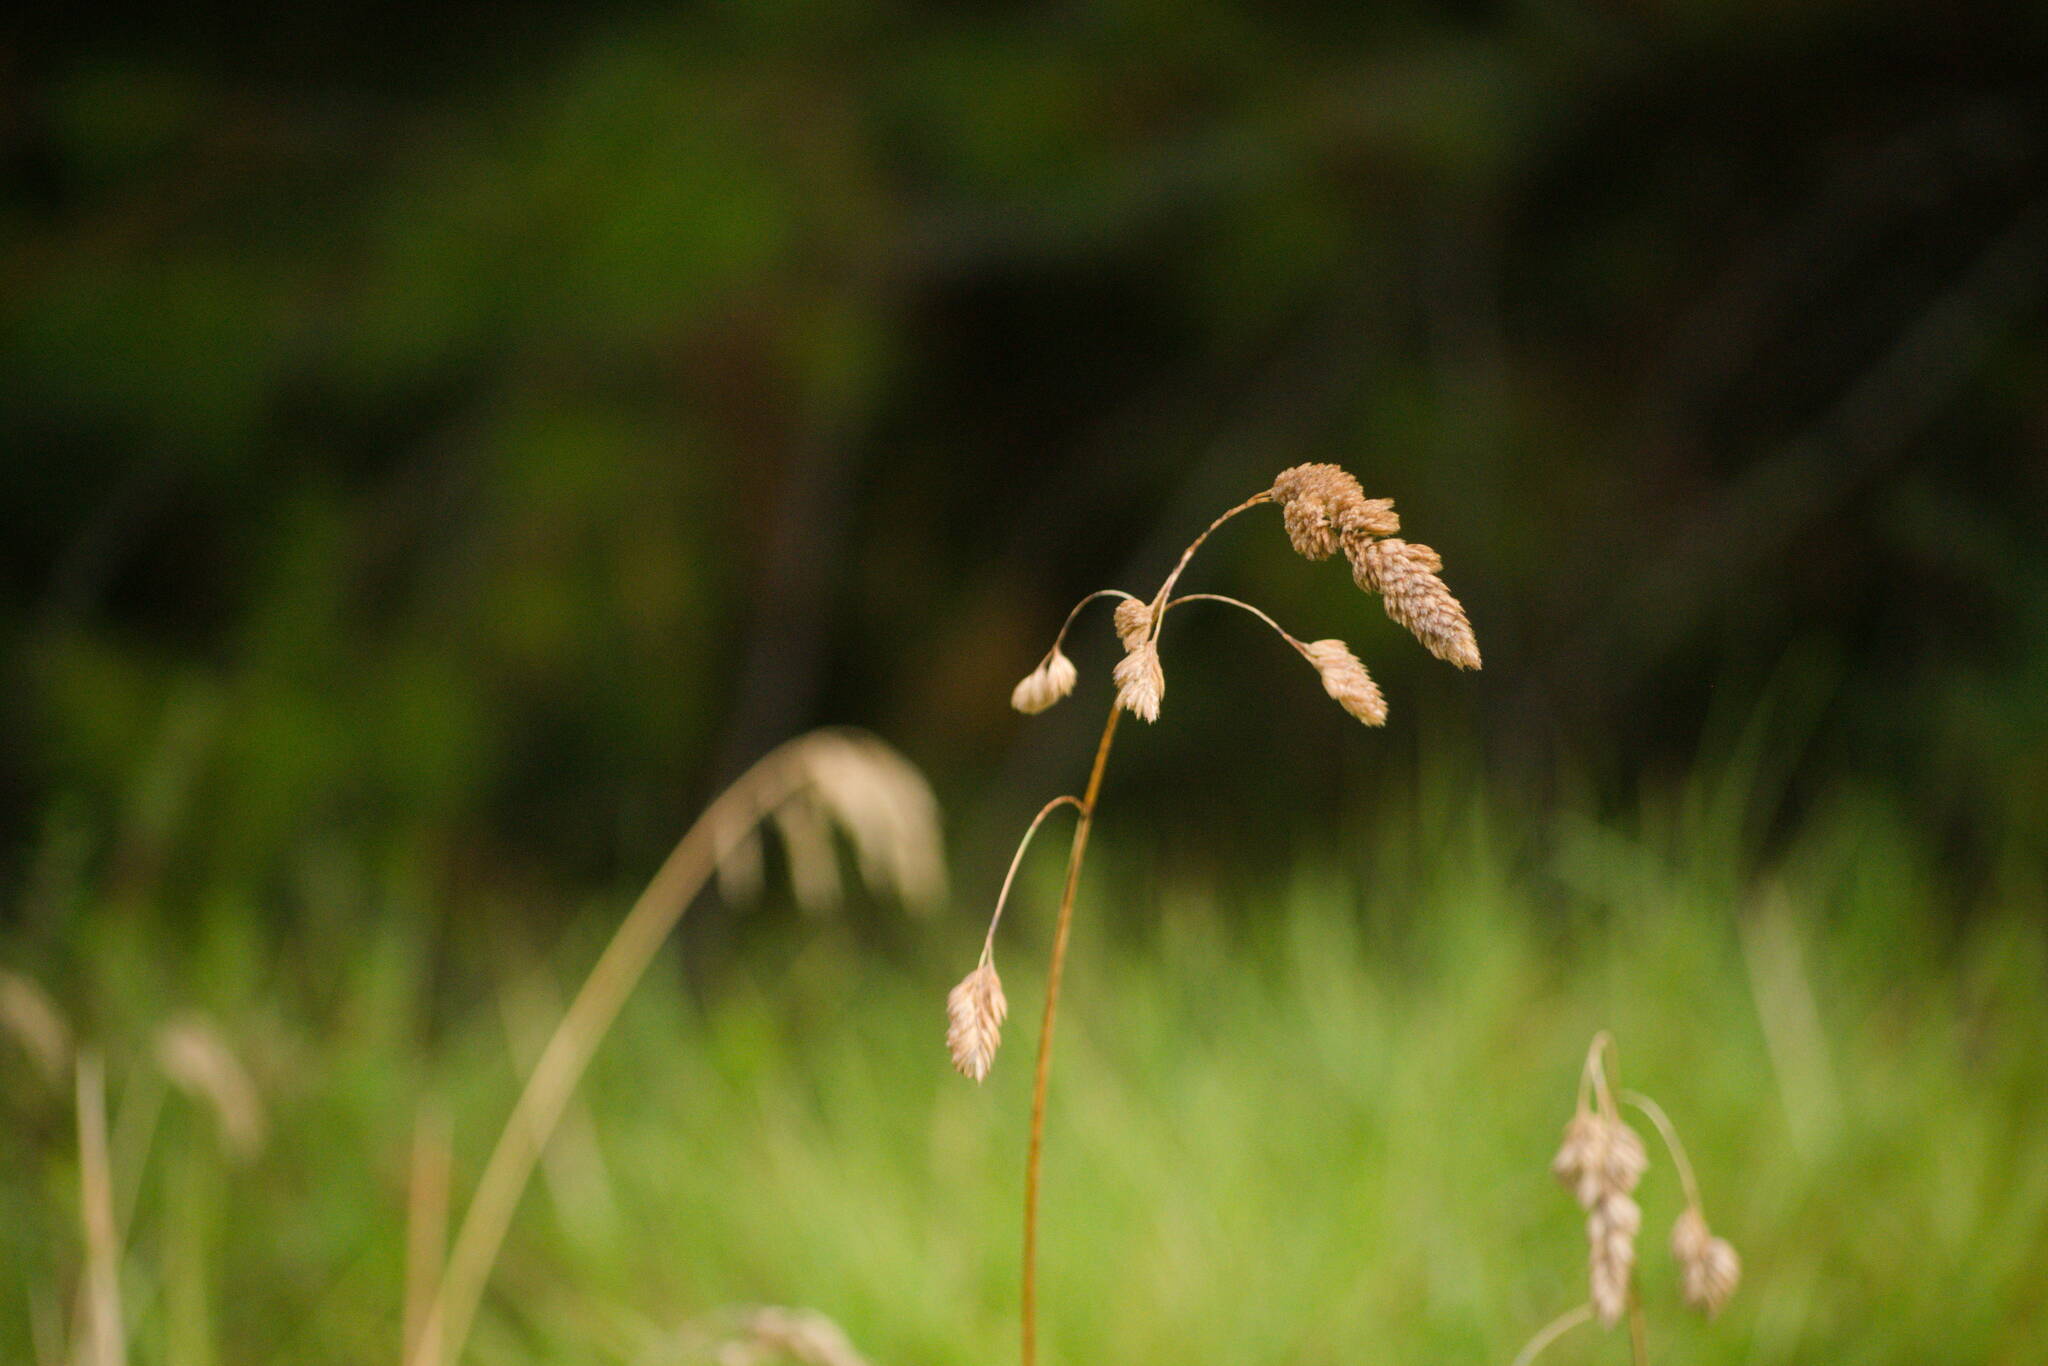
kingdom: Plantae
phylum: Tracheophyta
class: Liliopsida
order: Poales
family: Poaceae
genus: Dactylis
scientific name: Dactylis glomerata
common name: Orchardgrass
